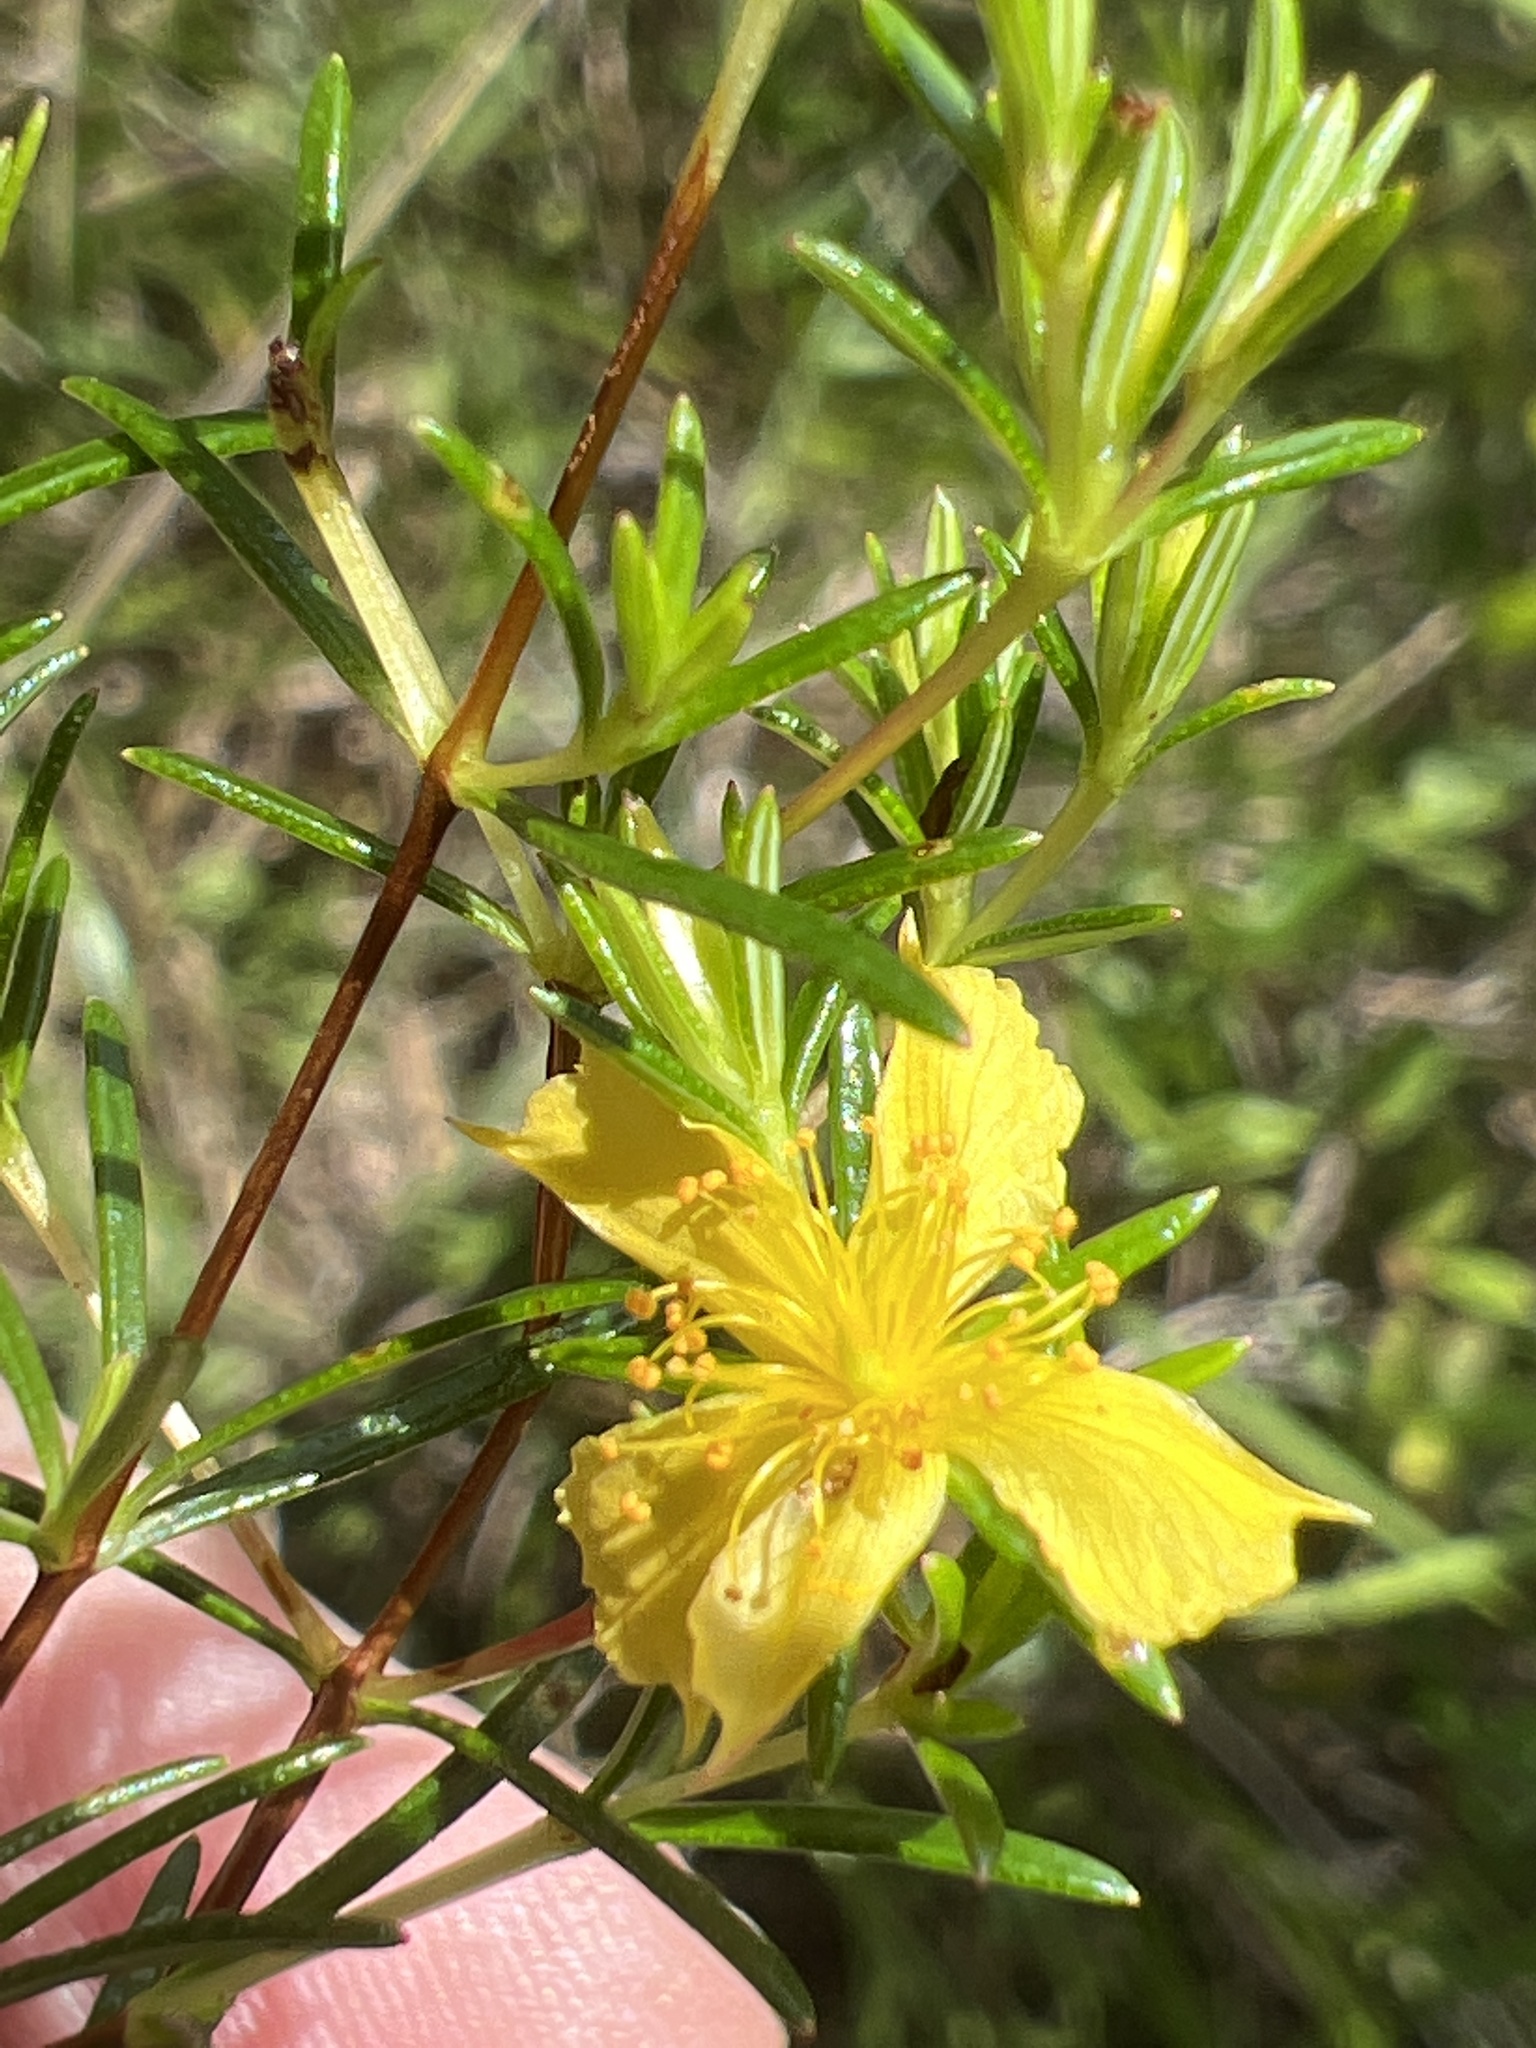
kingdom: Plantae
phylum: Tracheophyta
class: Magnoliopsida
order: Malpighiales
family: Hypericaceae
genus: Hypericum
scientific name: Hypericum brachyphyllum
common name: Coastal plain st. john's-wort
